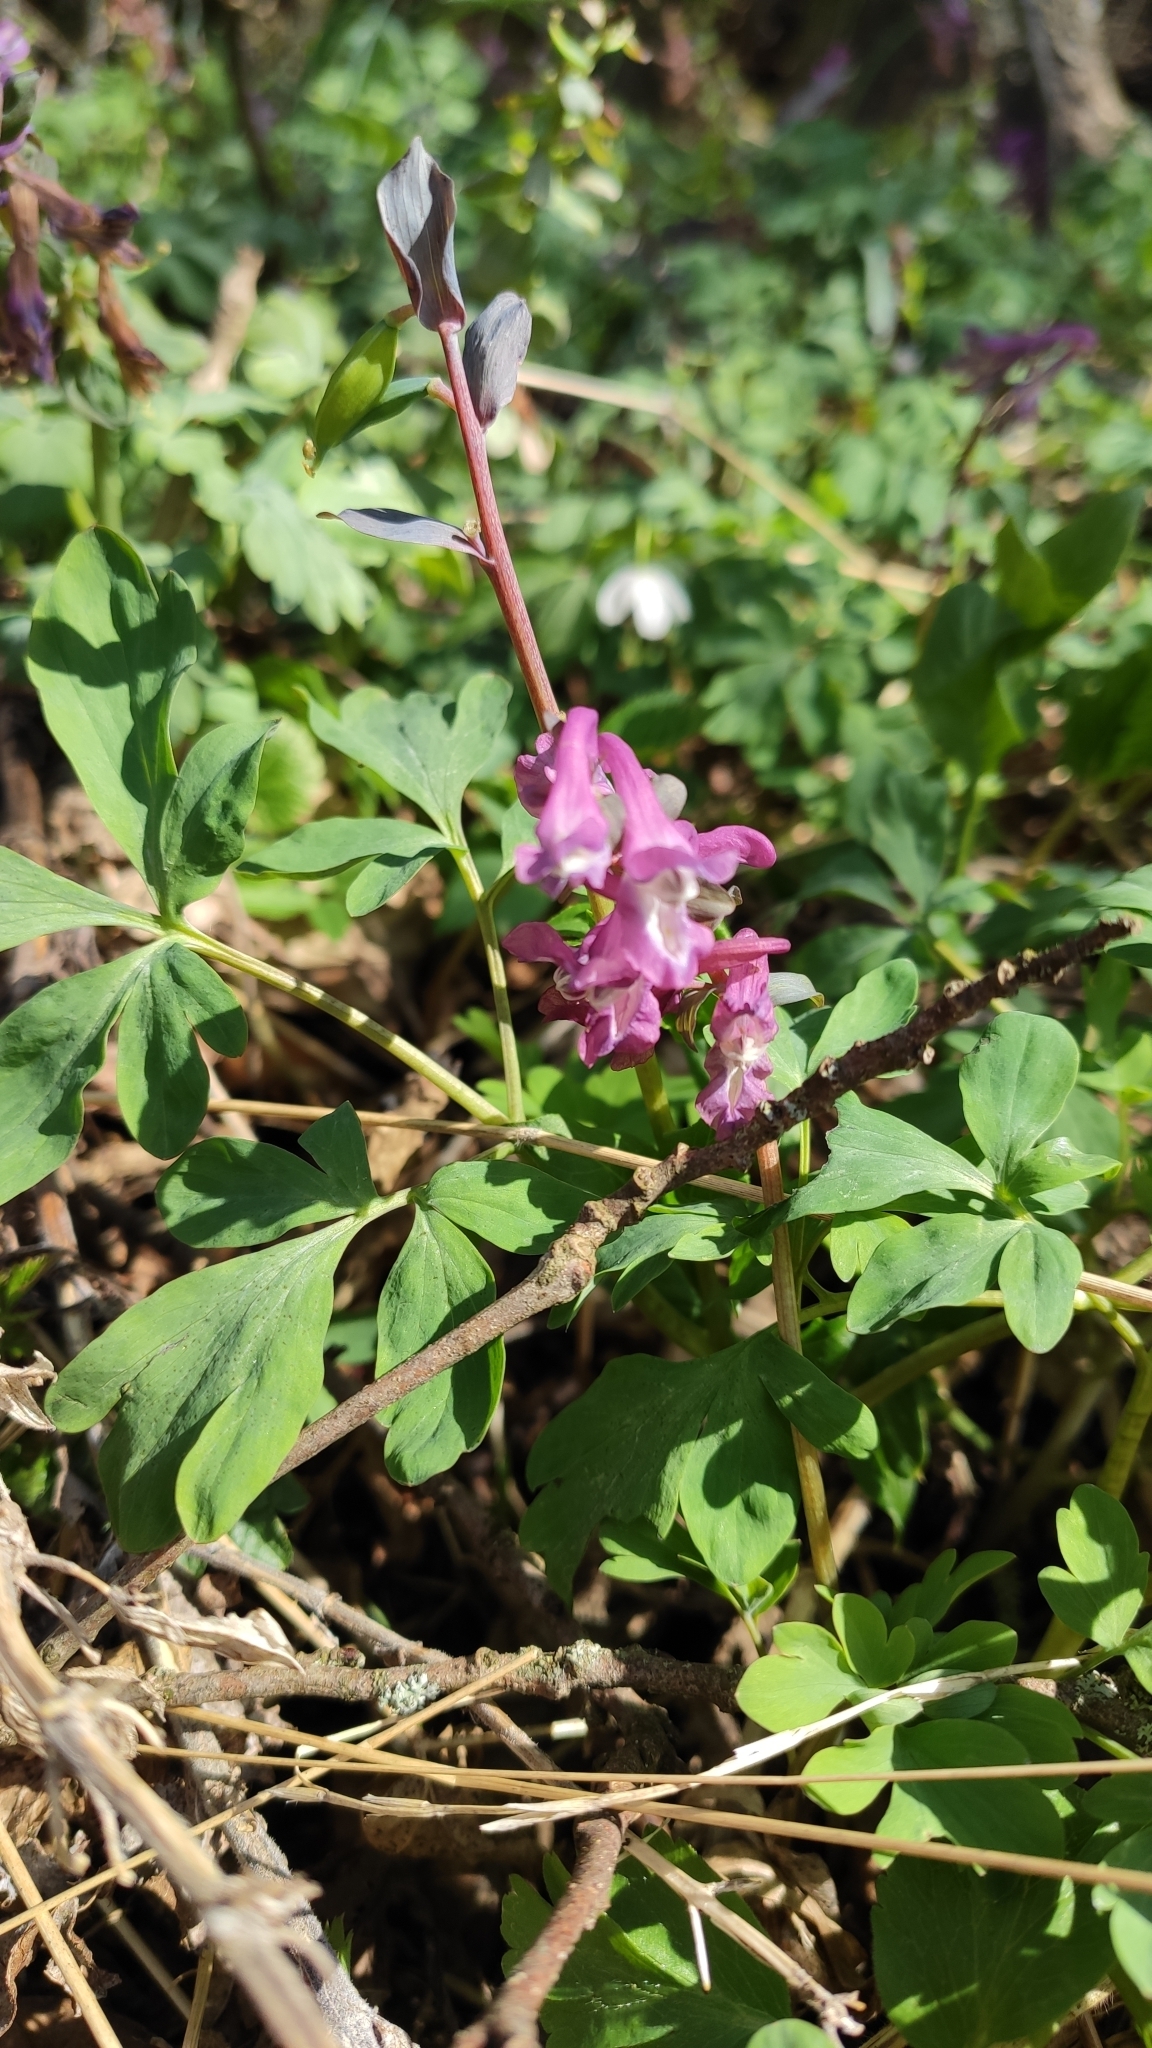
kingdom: Plantae
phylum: Tracheophyta
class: Magnoliopsida
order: Ranunculales
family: Papaveraceae
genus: Corydalis
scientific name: Corydalis cava
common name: Hollowroot
